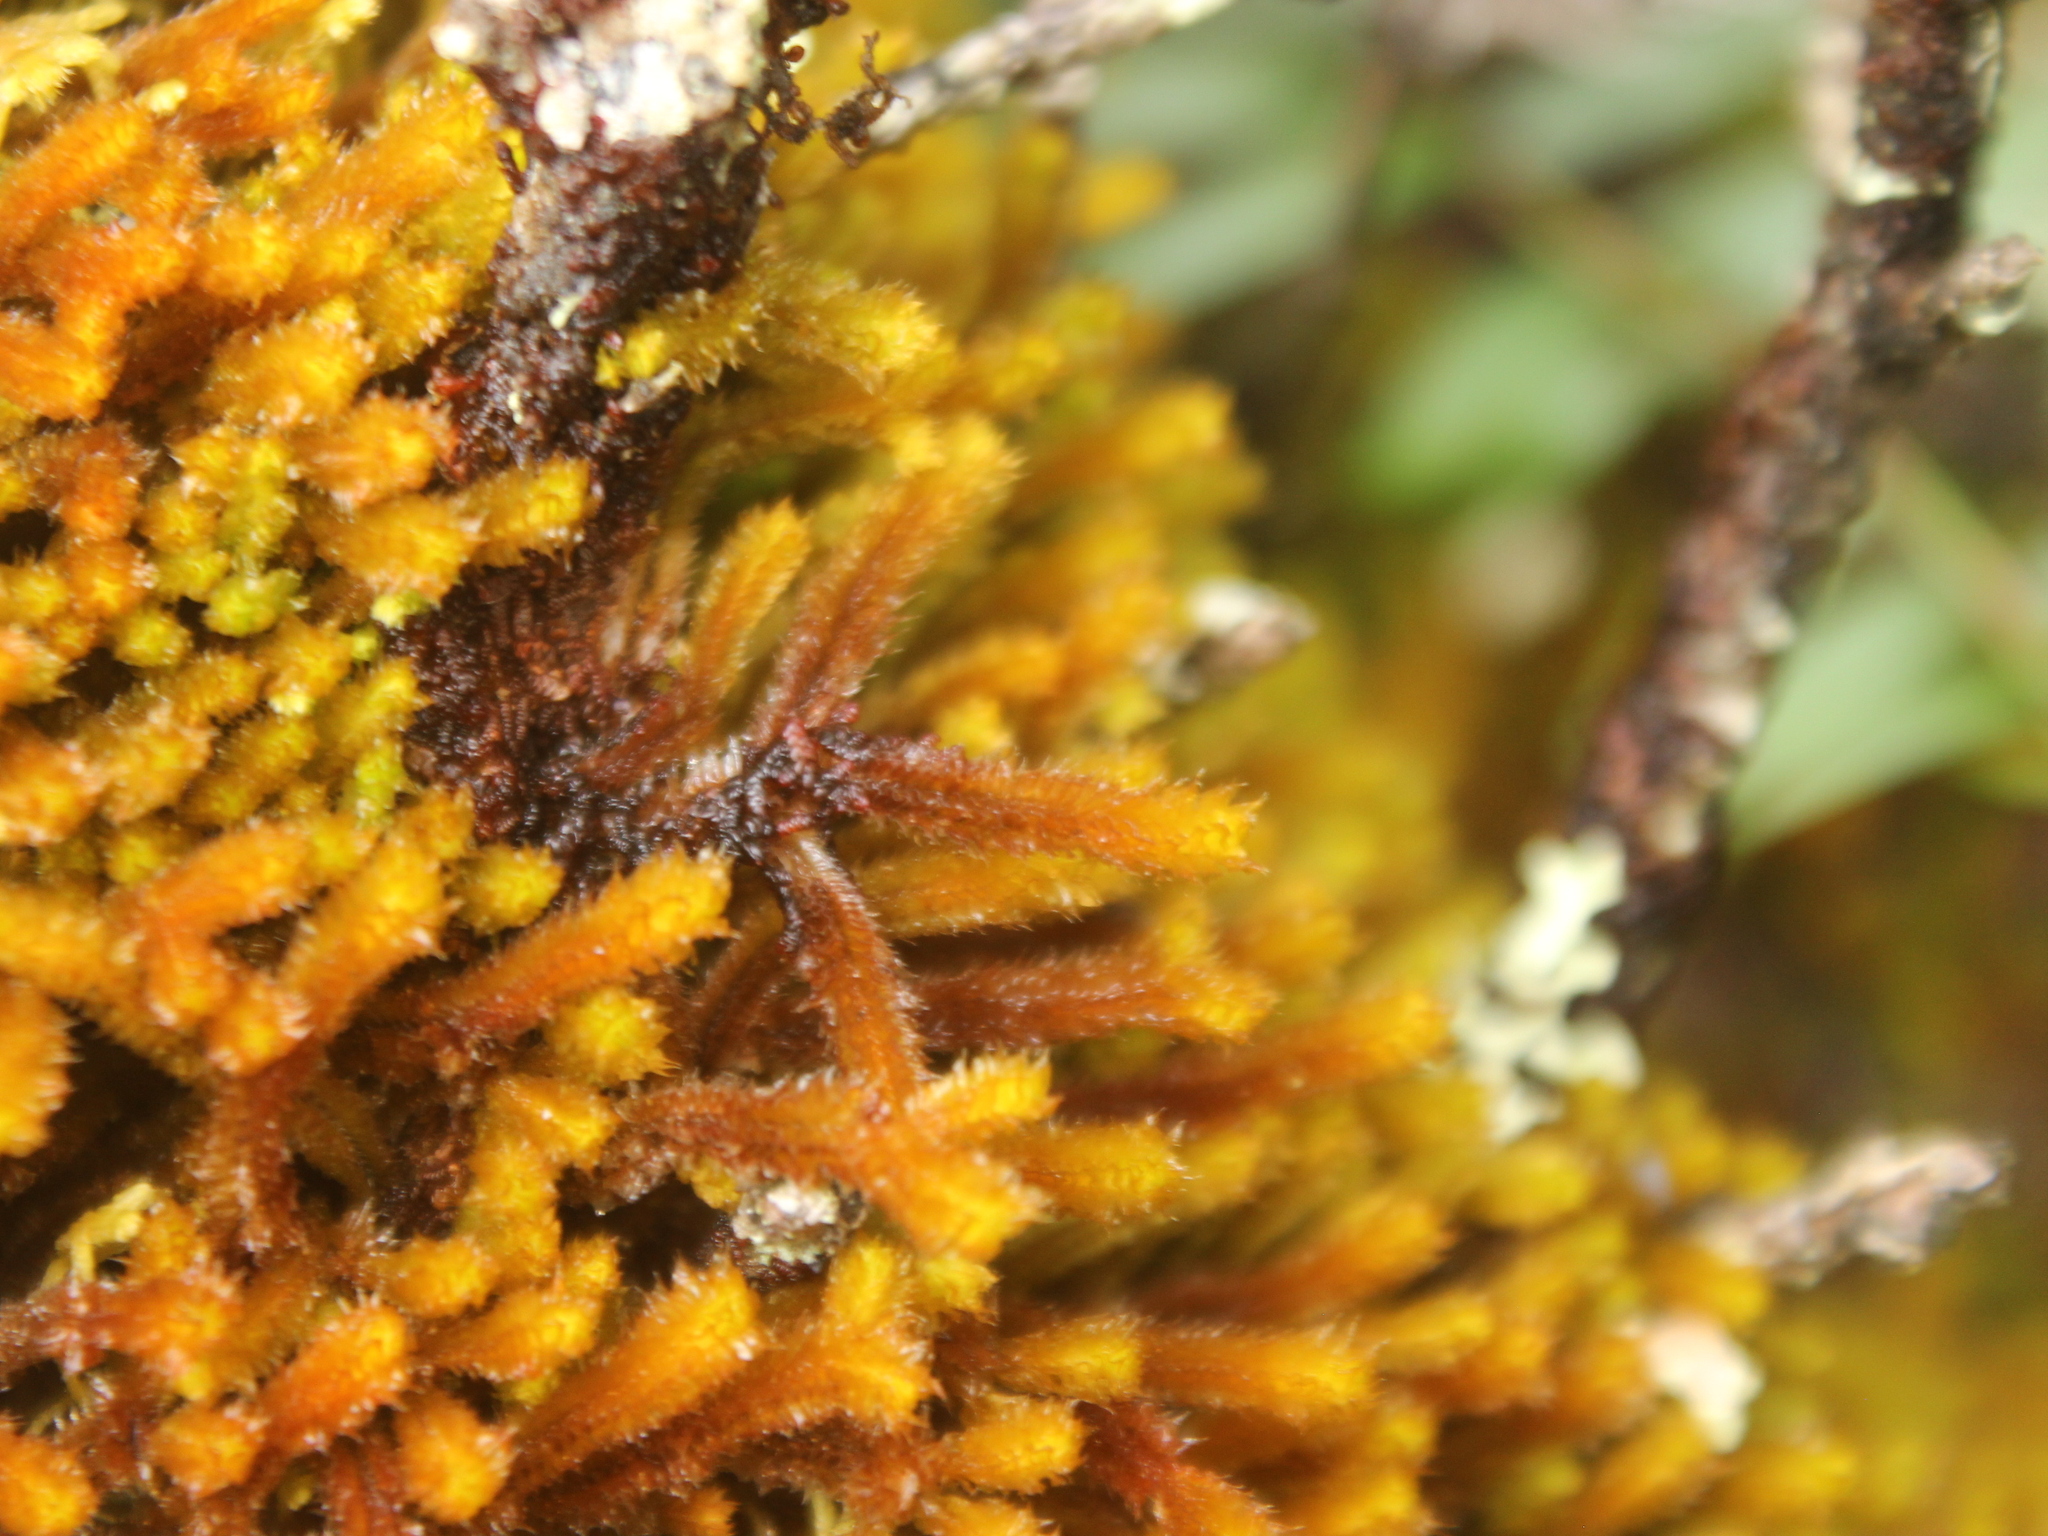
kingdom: Plantae
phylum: Marchantiophyta
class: Jungermanniopsida
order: Jungermanniales
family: Anastrophyllaceae
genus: Chandonanthus
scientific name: Chandonanthus squarrosus
